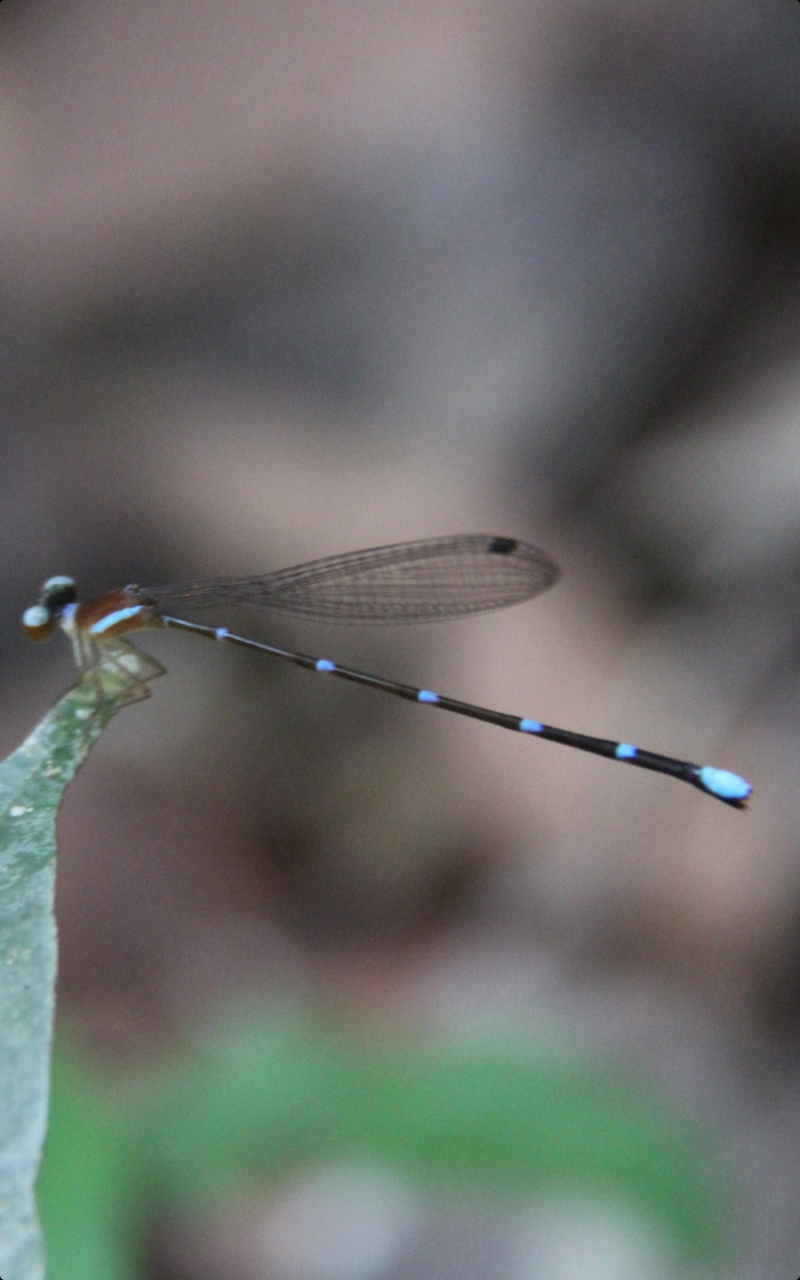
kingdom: Animalia
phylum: Arthropoda
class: Insecta
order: Odonata
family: Platystictidae
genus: Ceylonosticta
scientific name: Ceylonosticta brincki
